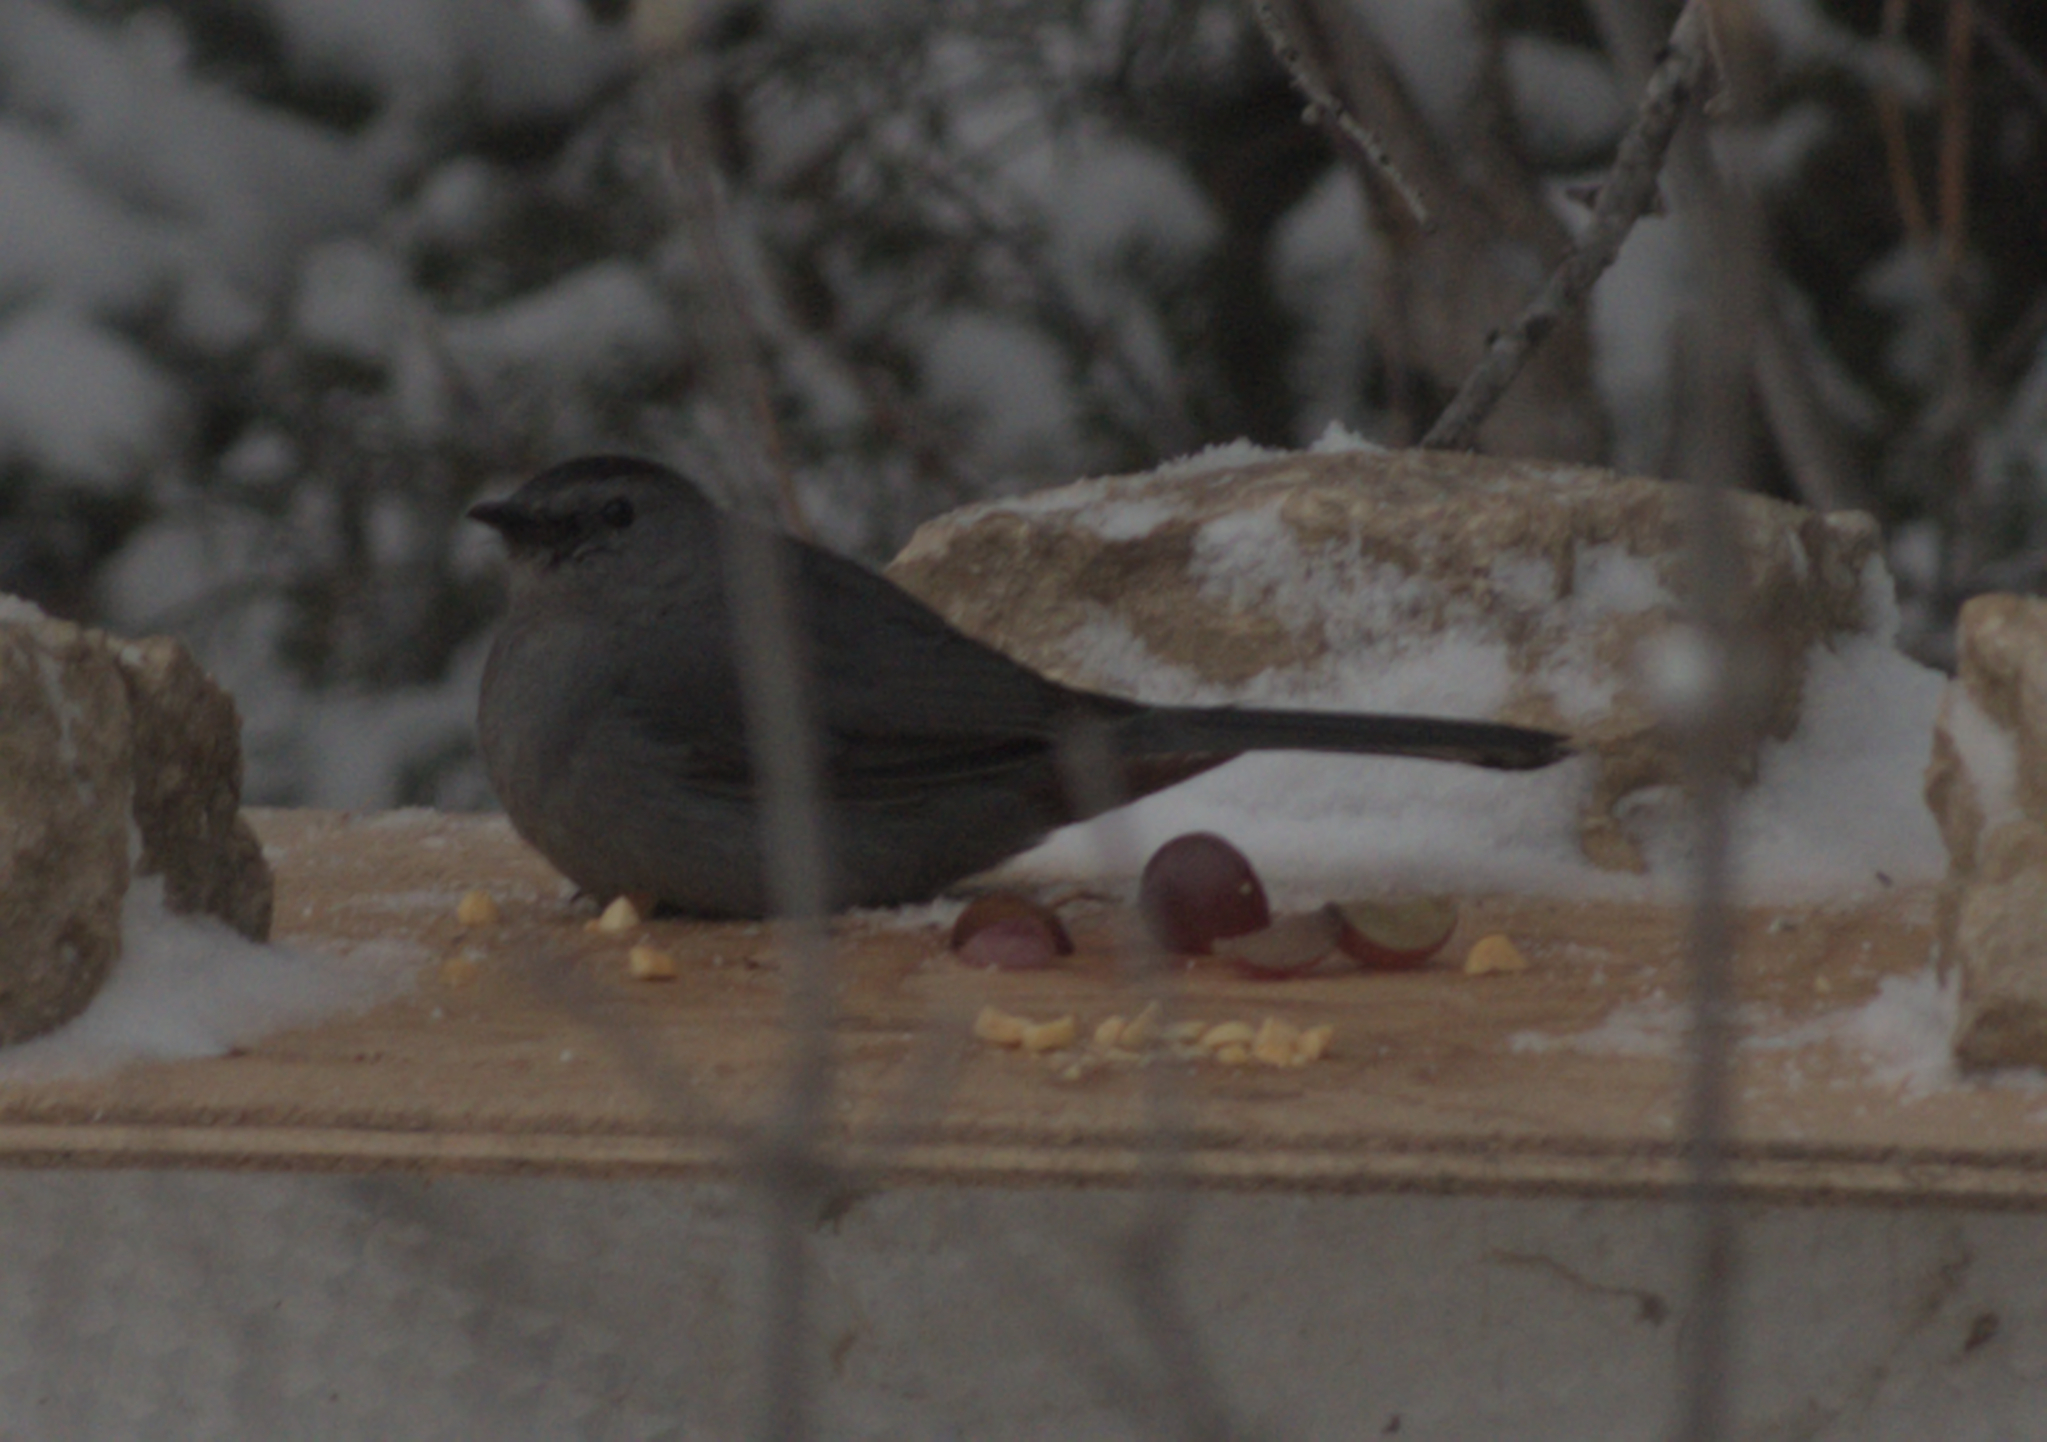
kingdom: Animalia
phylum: Chordata
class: Aves
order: Passeriformes
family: Mimidae
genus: Dumetella
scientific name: Dumetella carolinensis
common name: Gray catbird
